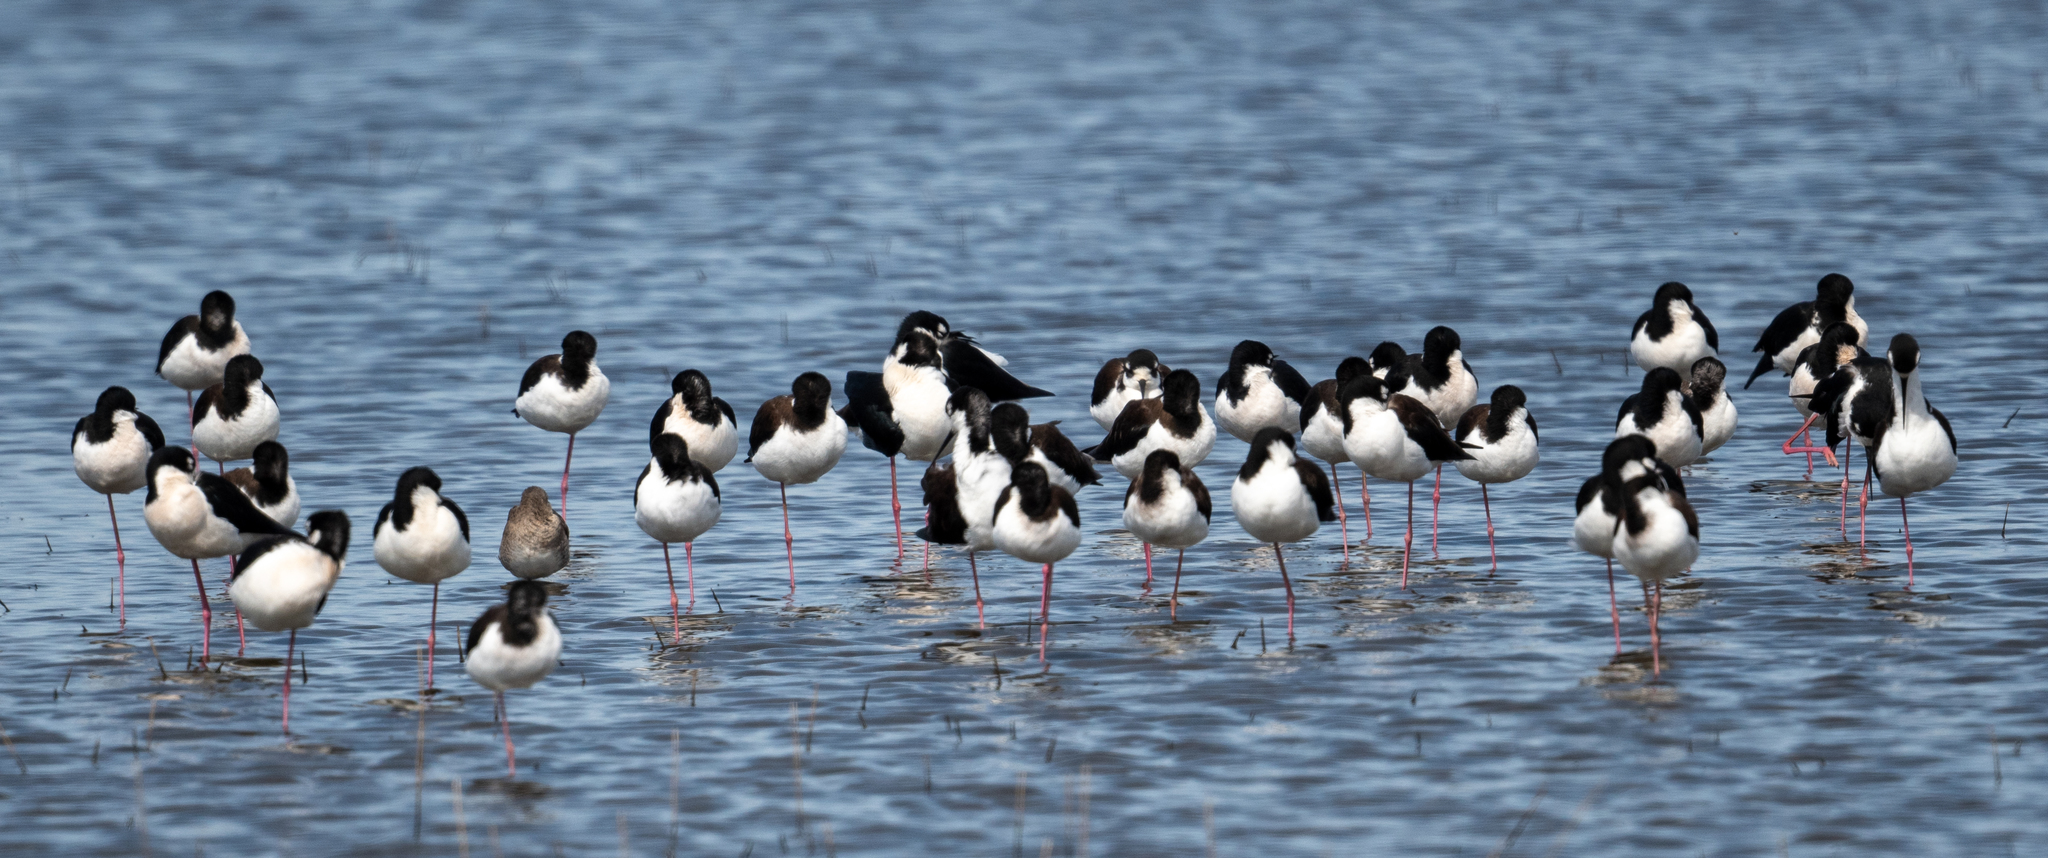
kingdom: Animalia
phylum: Chordata
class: Aves
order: Charadriiformes
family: Recurvirostridae
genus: Himantopus
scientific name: Himantopus mexicanus
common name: Black-necked stilt
